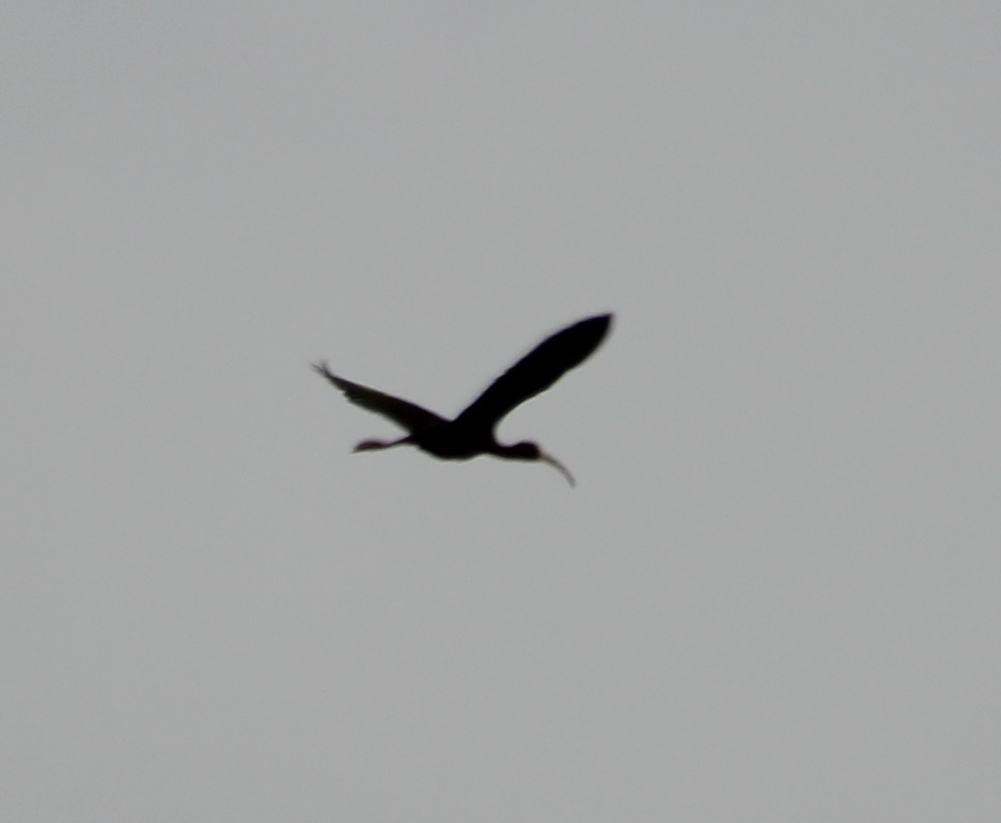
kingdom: Animalia
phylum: Chordata
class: Aves
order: Pelecaniformes
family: Threskiornithidae
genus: Plegadis
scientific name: Plegadis chihi
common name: White-faced ibis
